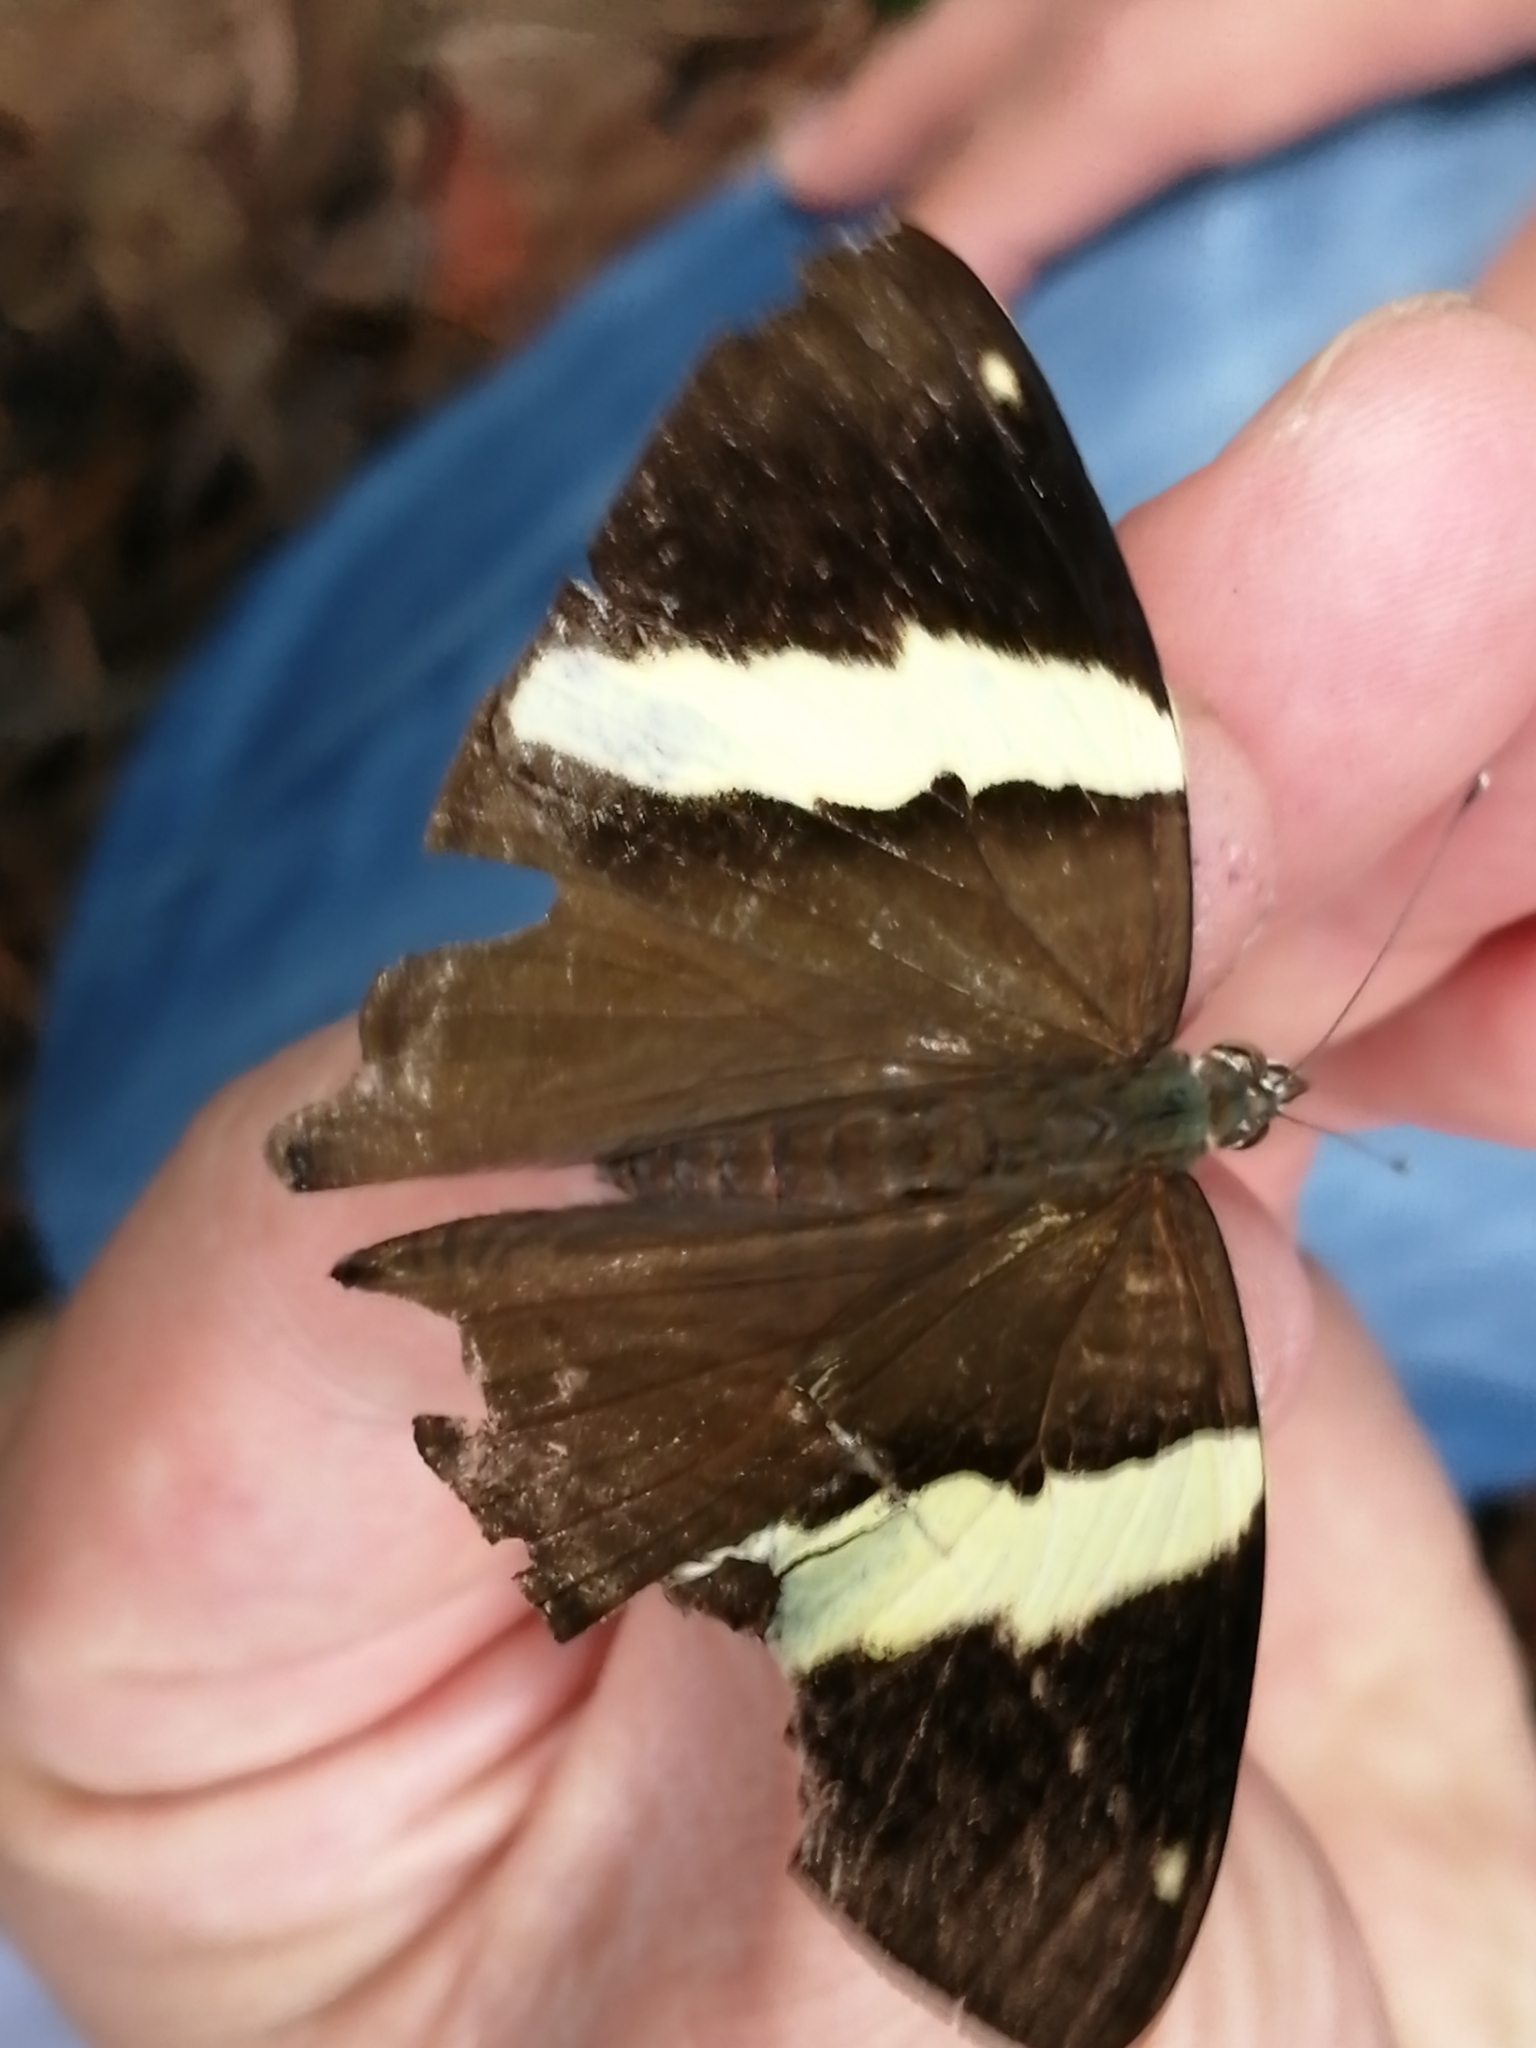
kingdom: Animalia
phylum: Arthropoda
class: Insecta
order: Lepidoptera
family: Nymphalidae
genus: Colobura
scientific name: Colobura dirce
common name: Dirce beauty
